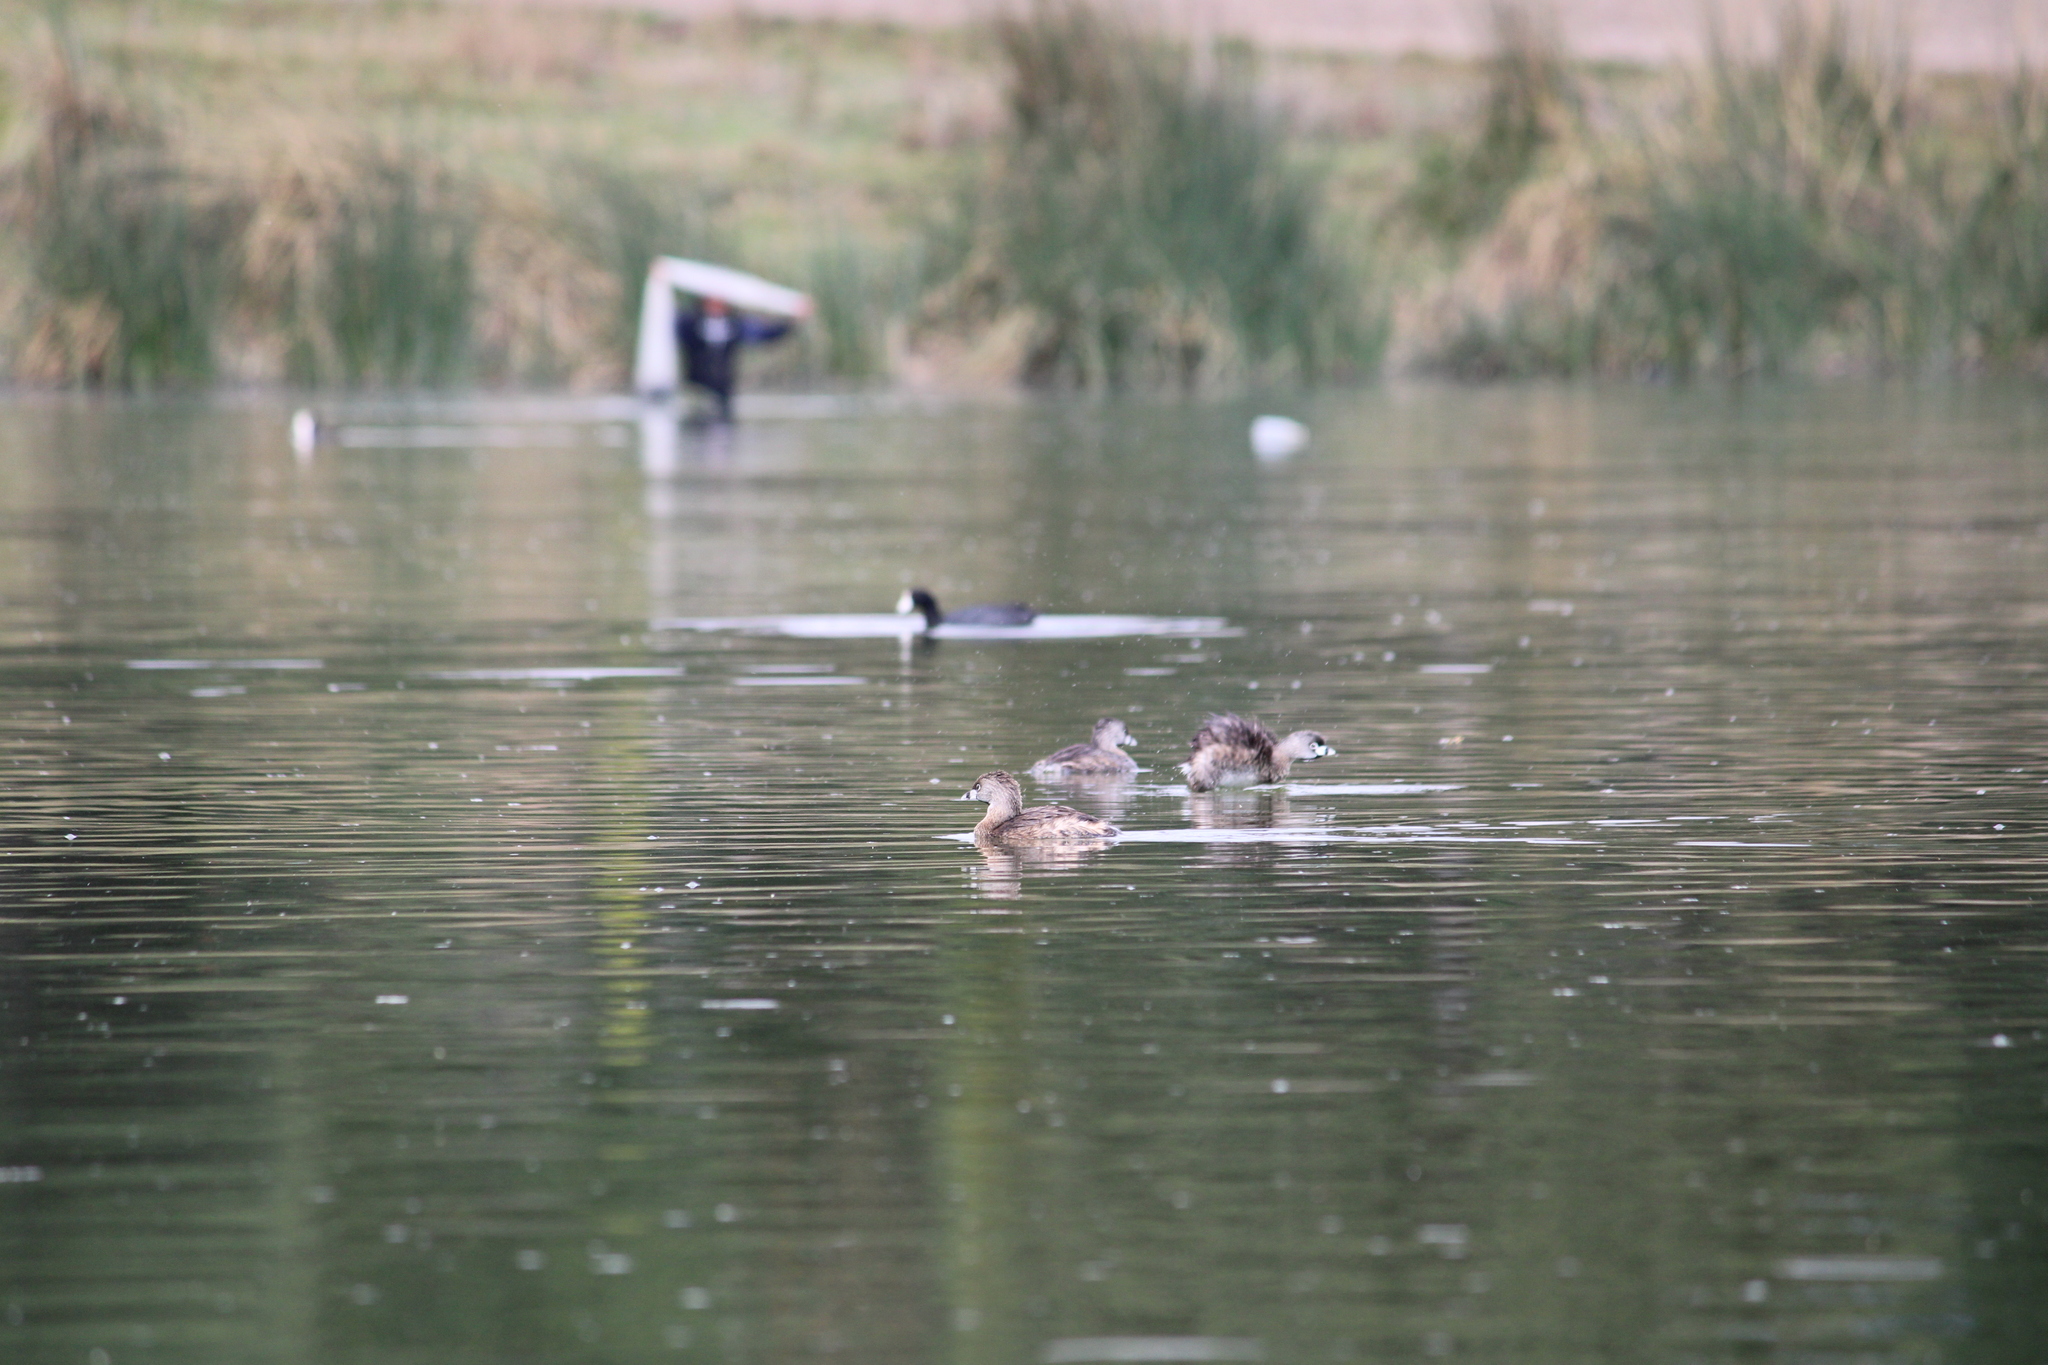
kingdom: Animalia
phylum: Chordata
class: Aves
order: Podicipediformes
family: Podicipedidae
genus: Podilymbus
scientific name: Podilymbus podiceps
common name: Pied-billed grebe
